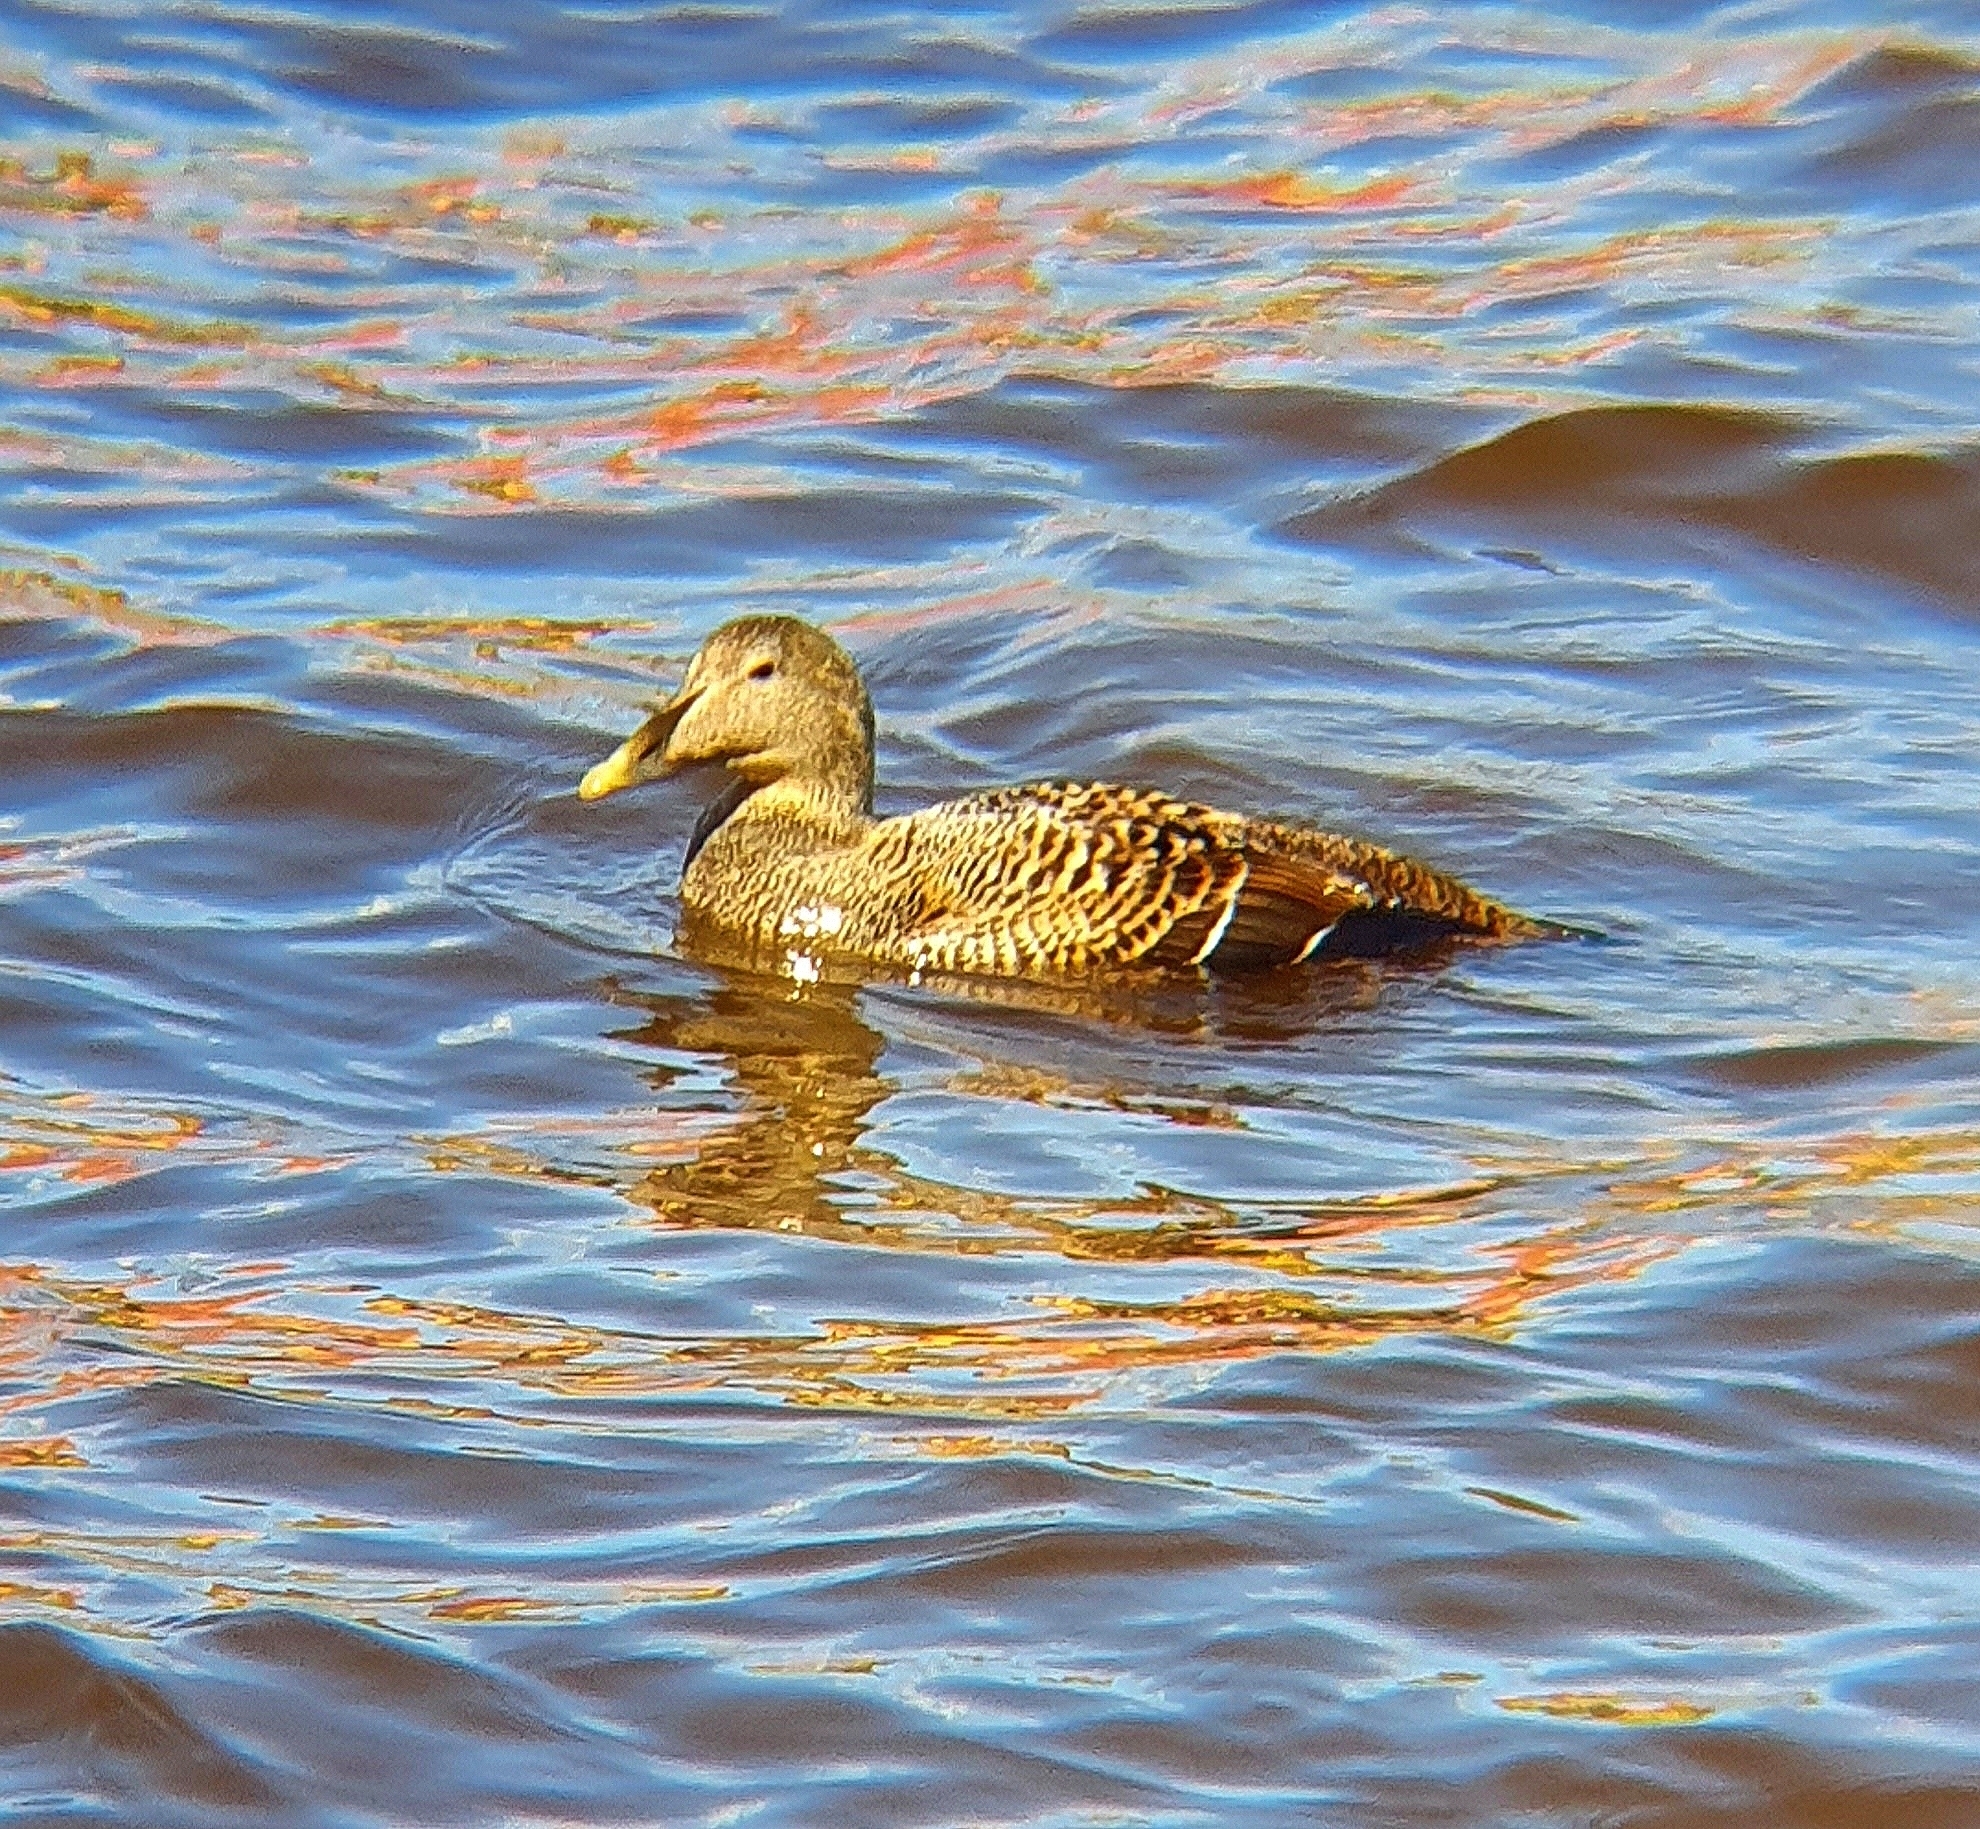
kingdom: Animalia
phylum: Chordata
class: Aves
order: Anseriformes
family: Anatidae
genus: Somateria
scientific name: Somateria mollissima
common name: Common eider
